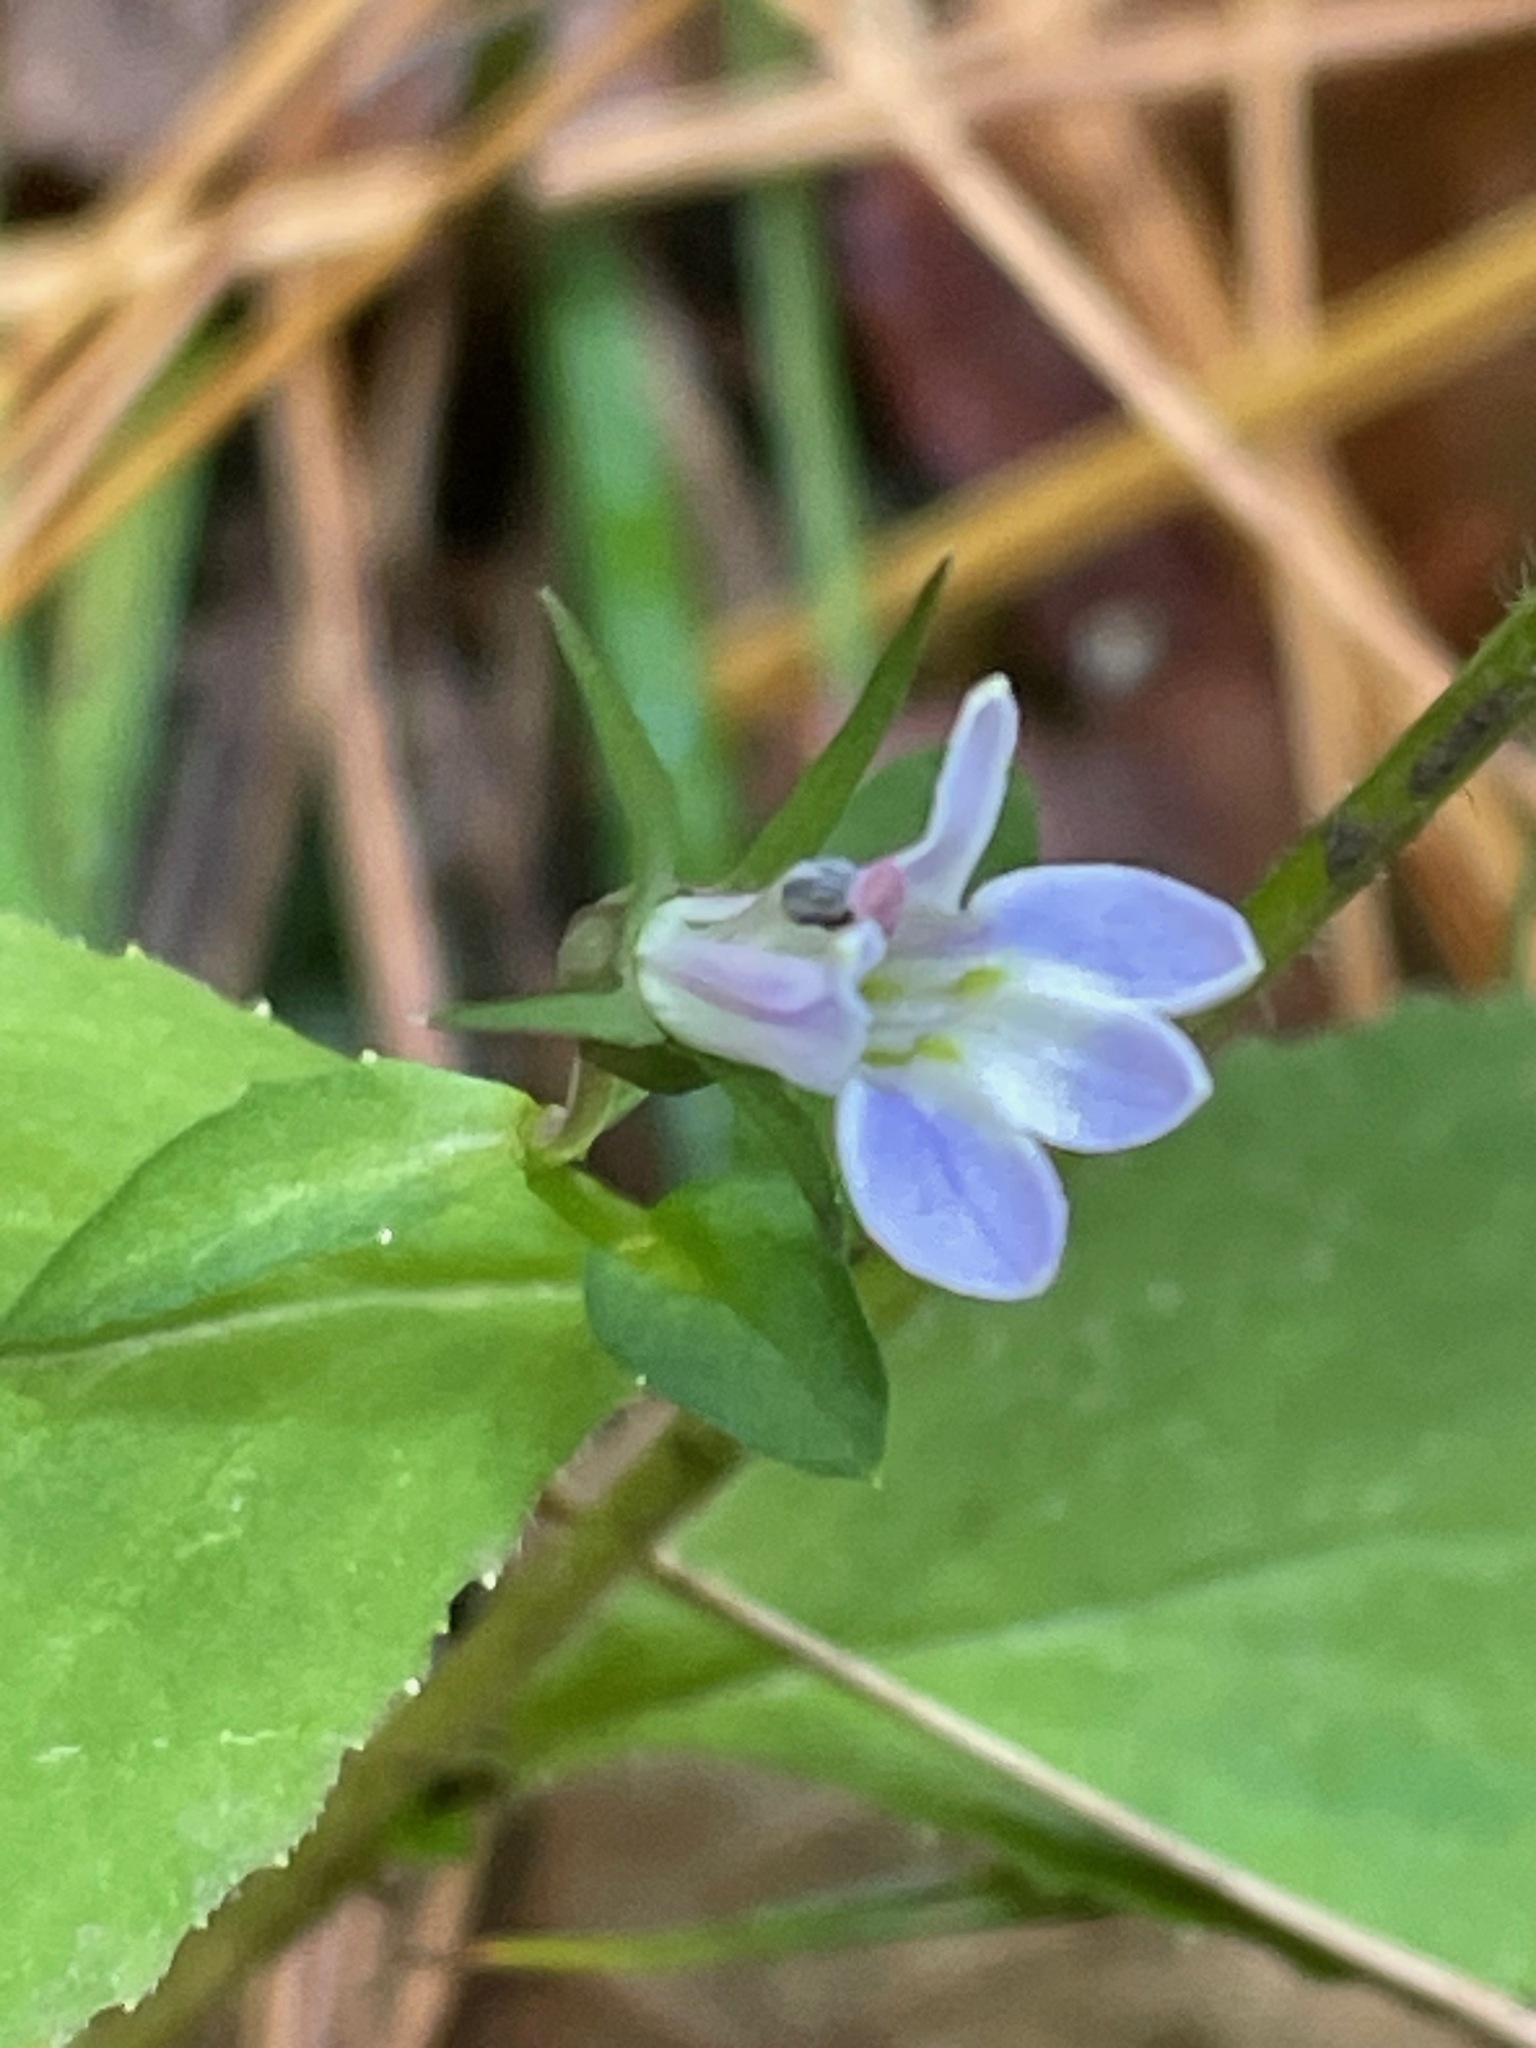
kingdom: Plantae
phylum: Tracheophyta
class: Magnoliopsida
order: Asterales
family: Campanulaceae
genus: Lobelia
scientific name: Lobelia inflata
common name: Indian tobacco
